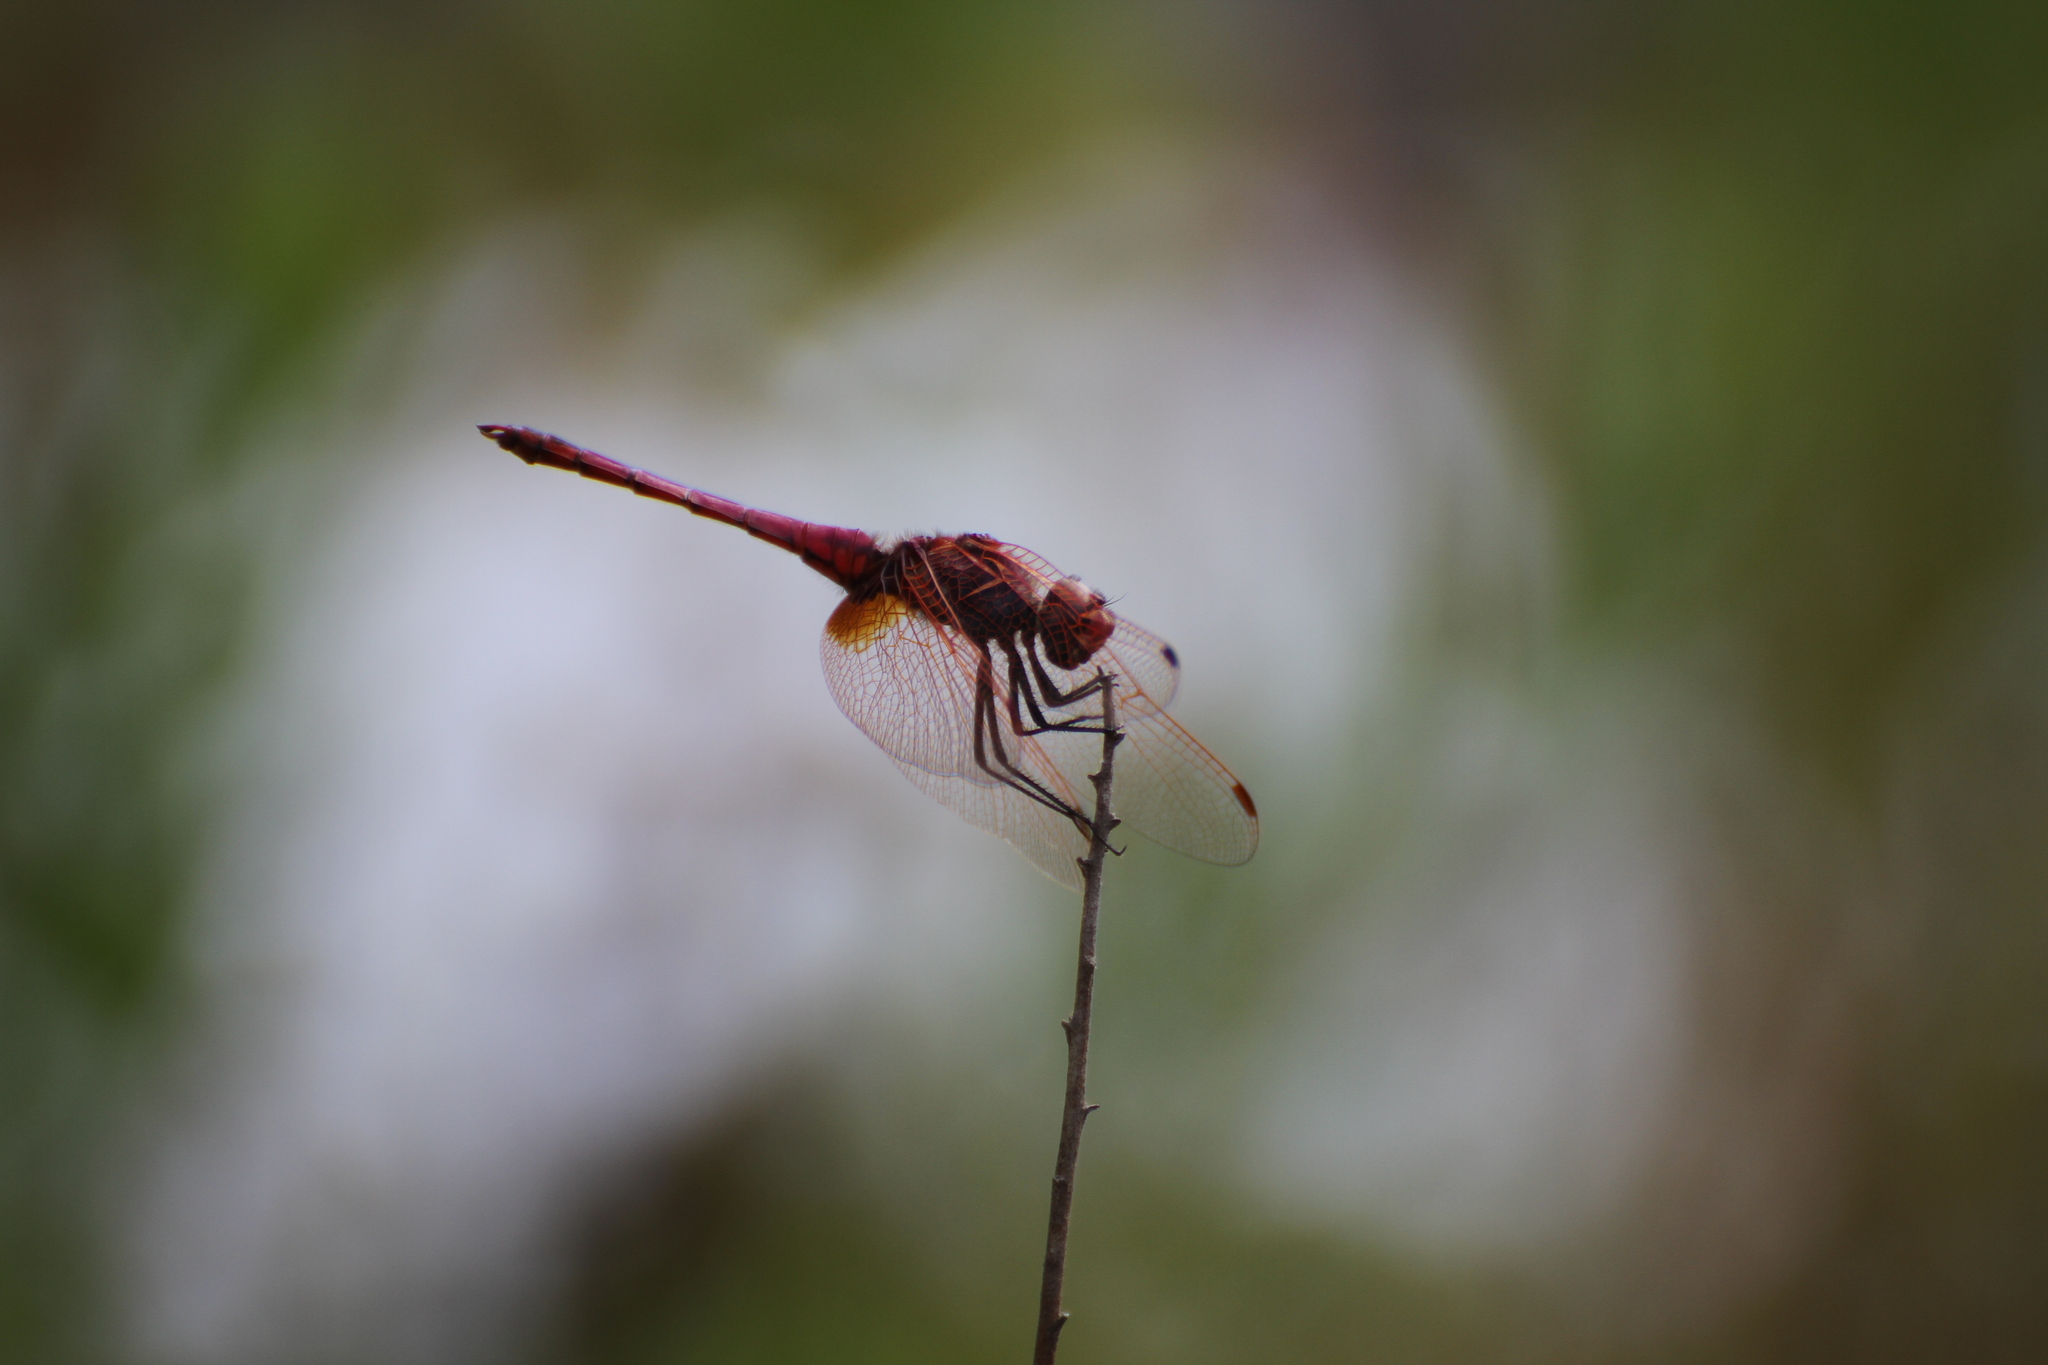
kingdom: Animalia
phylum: Arthropoda
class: Insecta
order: Odonata
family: Libellulidae
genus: Trithemis
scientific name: Trithemis annulata
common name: Violet dropwing
